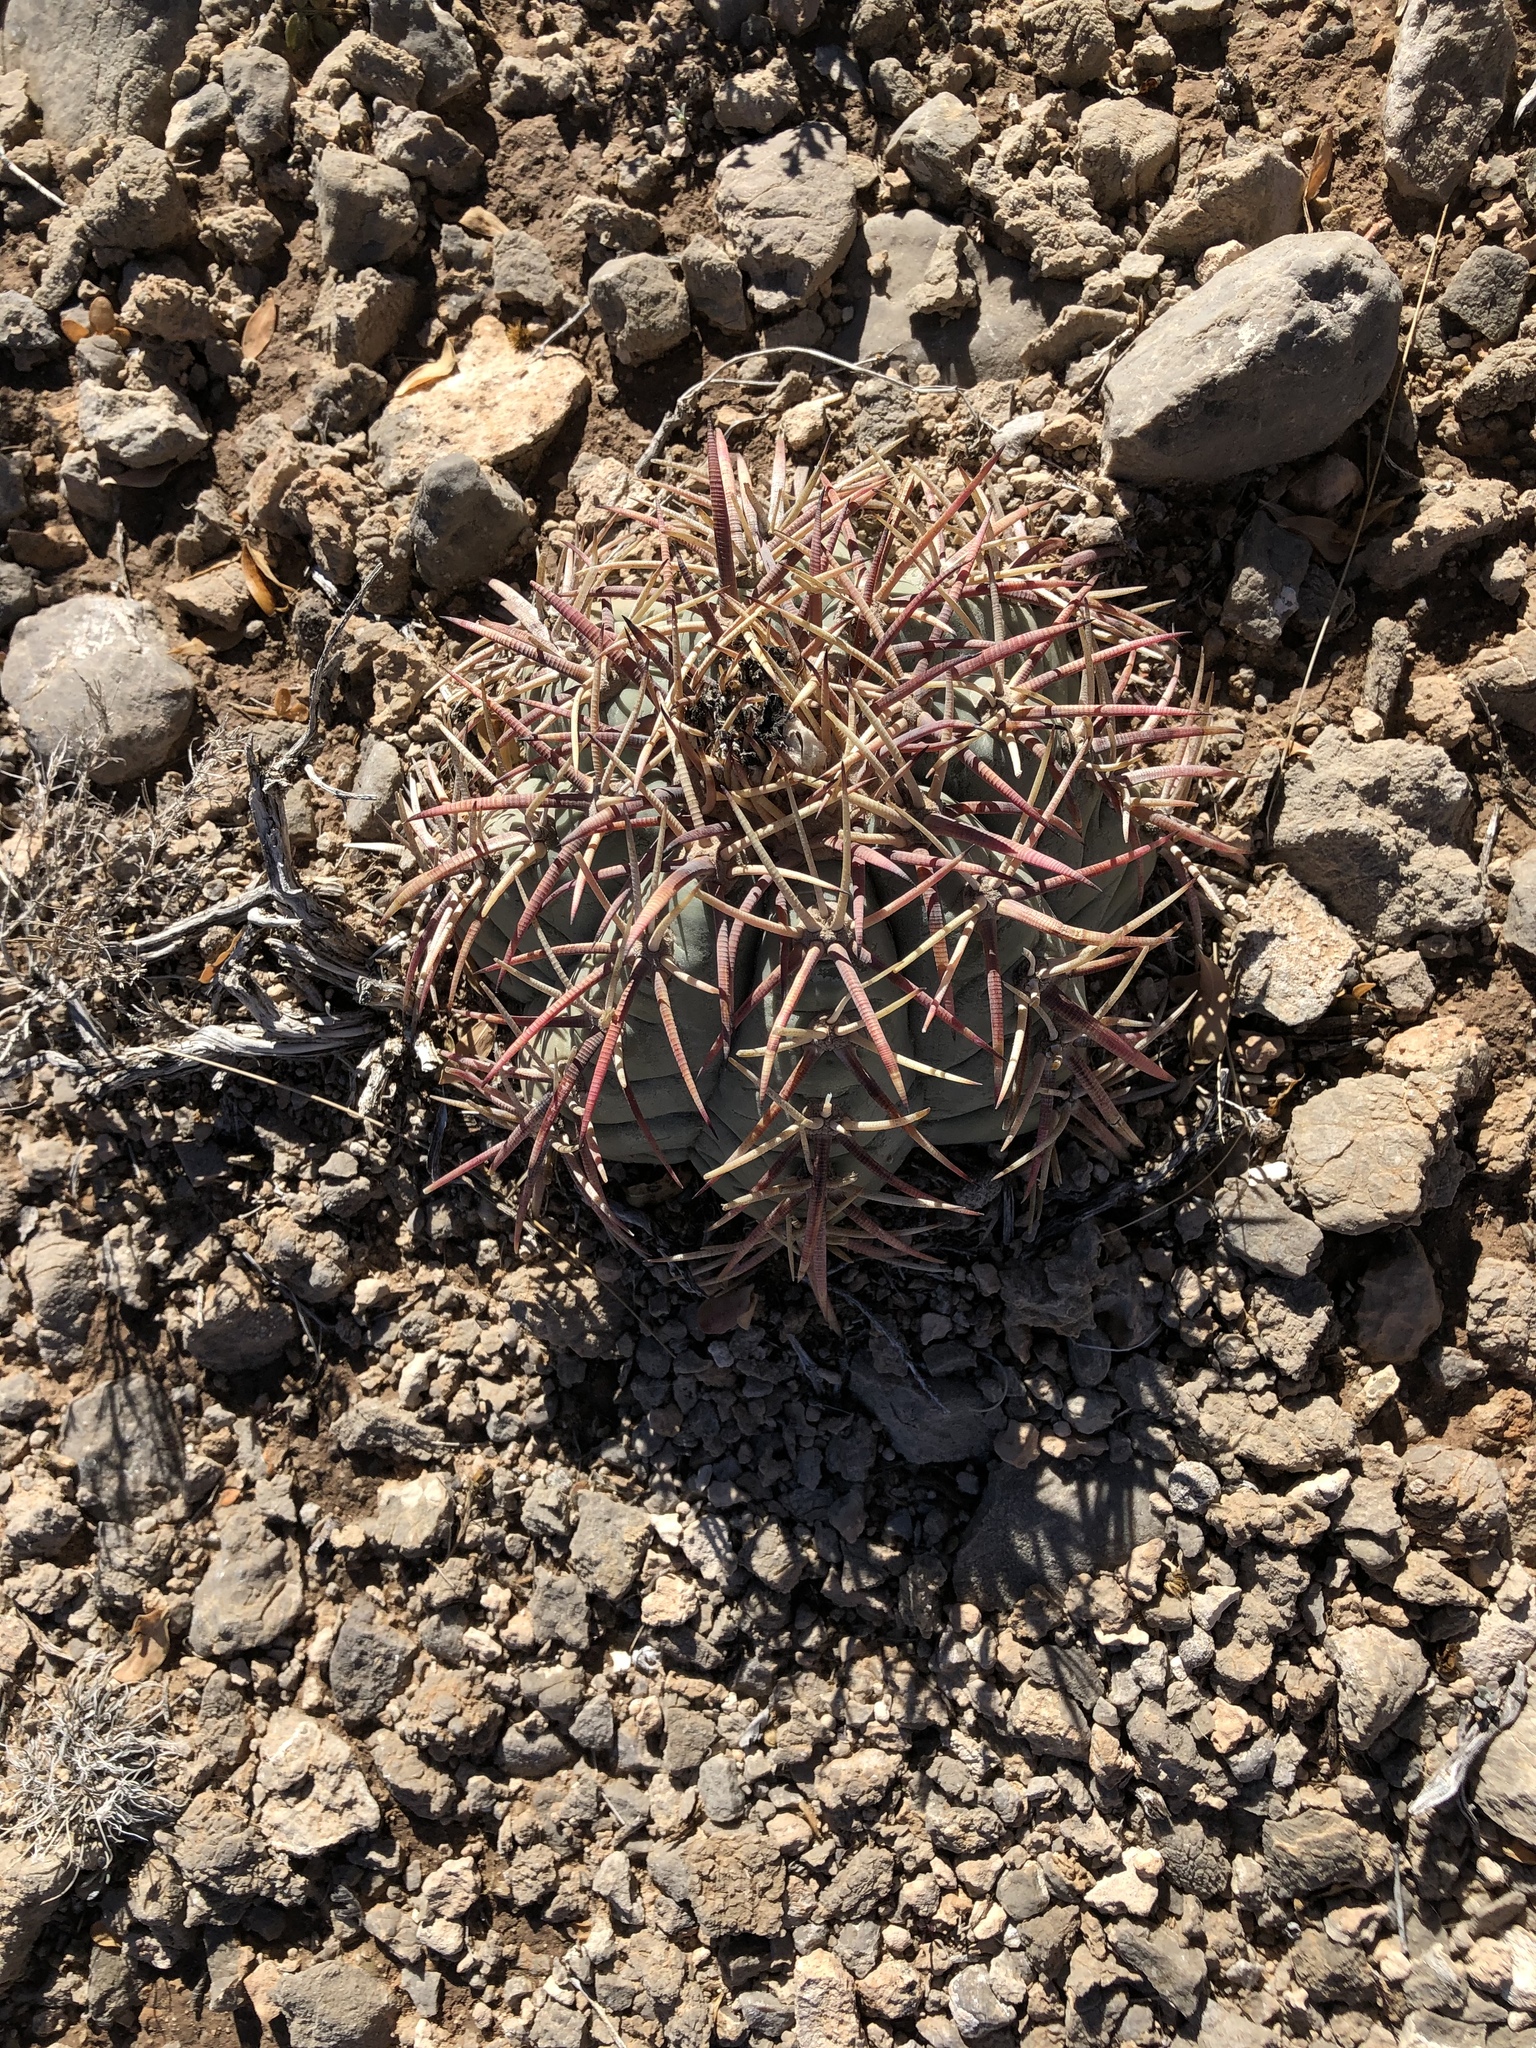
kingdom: Plantae
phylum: Tracheophyta
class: Magnoliopsida
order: Caryophyllales
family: Cactaceae
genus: Echinocactus
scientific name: Echinocactus horizonthalonius
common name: Devilshead
